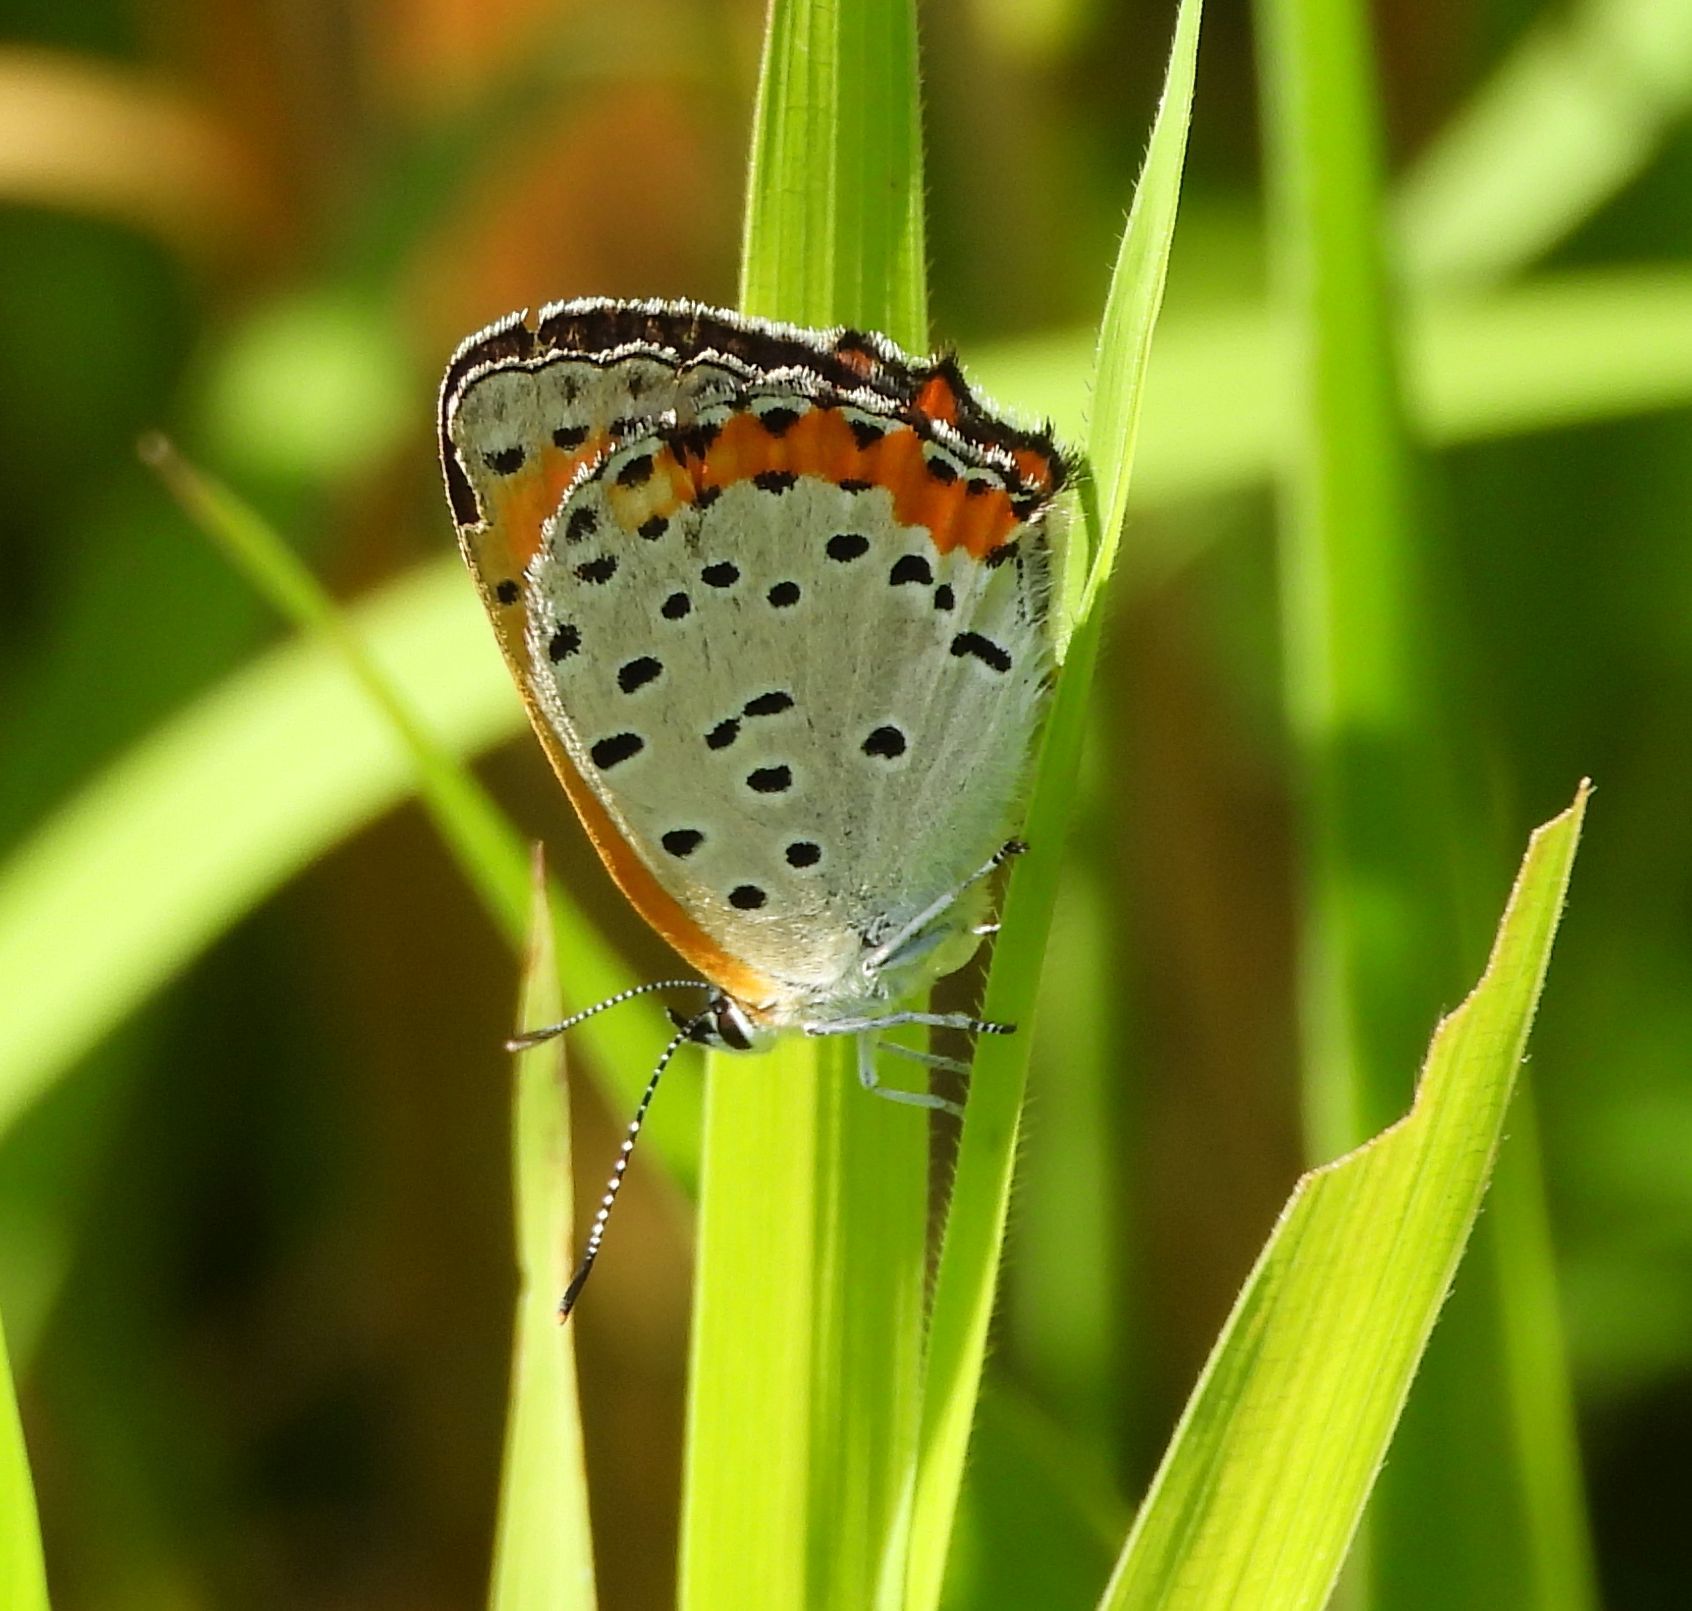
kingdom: Animalia
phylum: Arthropoda
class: Insecta
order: Lepidoptera
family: Lycaenidae
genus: Tharsalea
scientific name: Tharsalea hyllus
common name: Bronze copper
